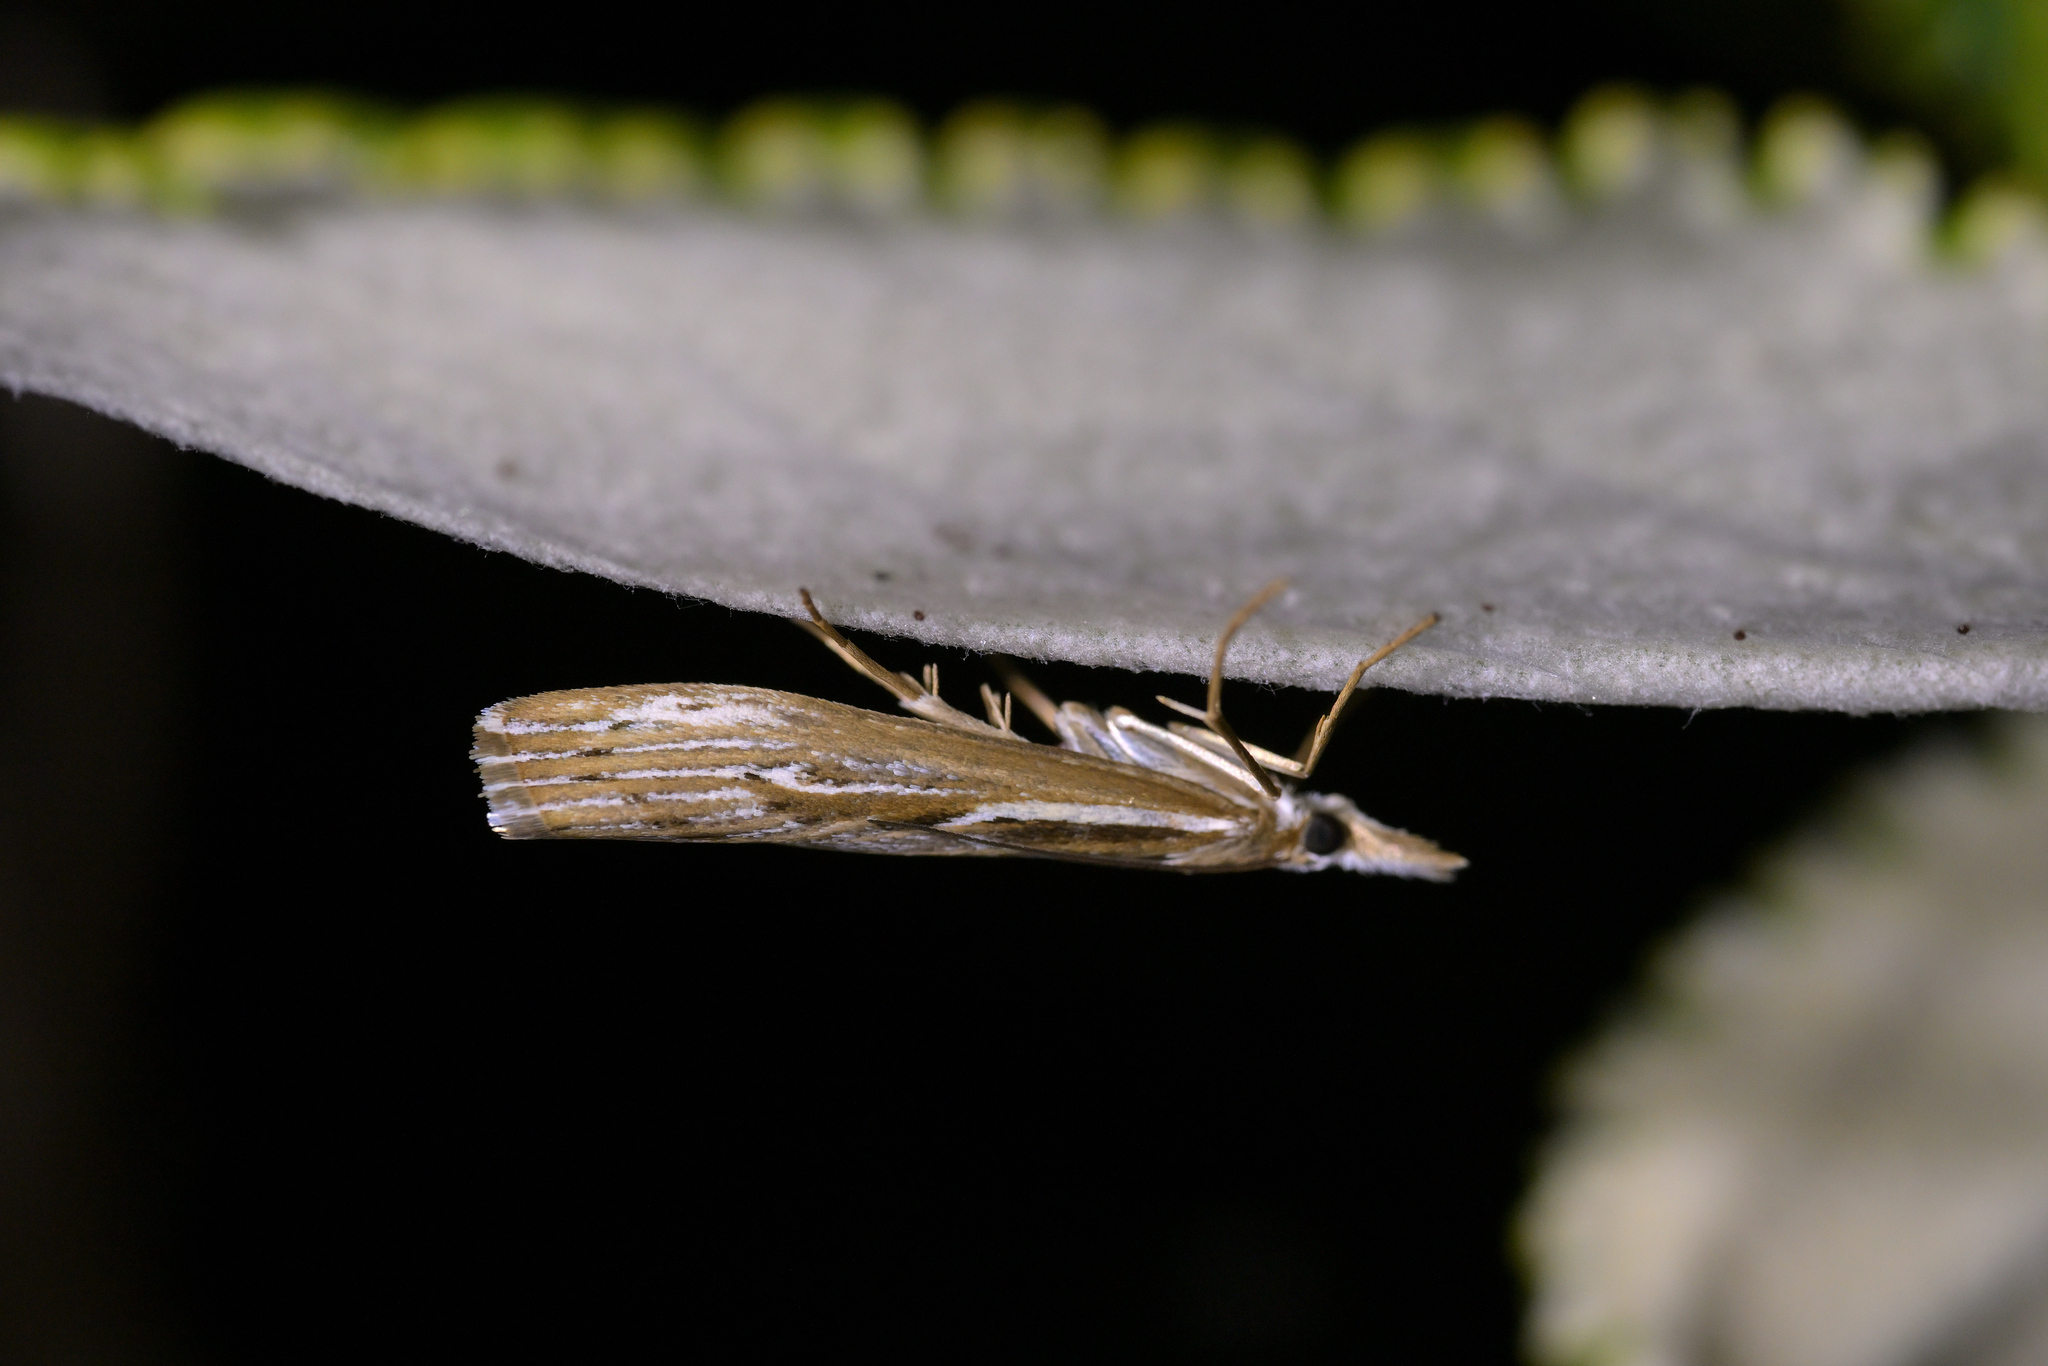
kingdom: Animalia
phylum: Arthropoda
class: Insecta
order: Lepidoptera
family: Crambidae
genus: Orocrambus
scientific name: Orocrambus harpophorus
